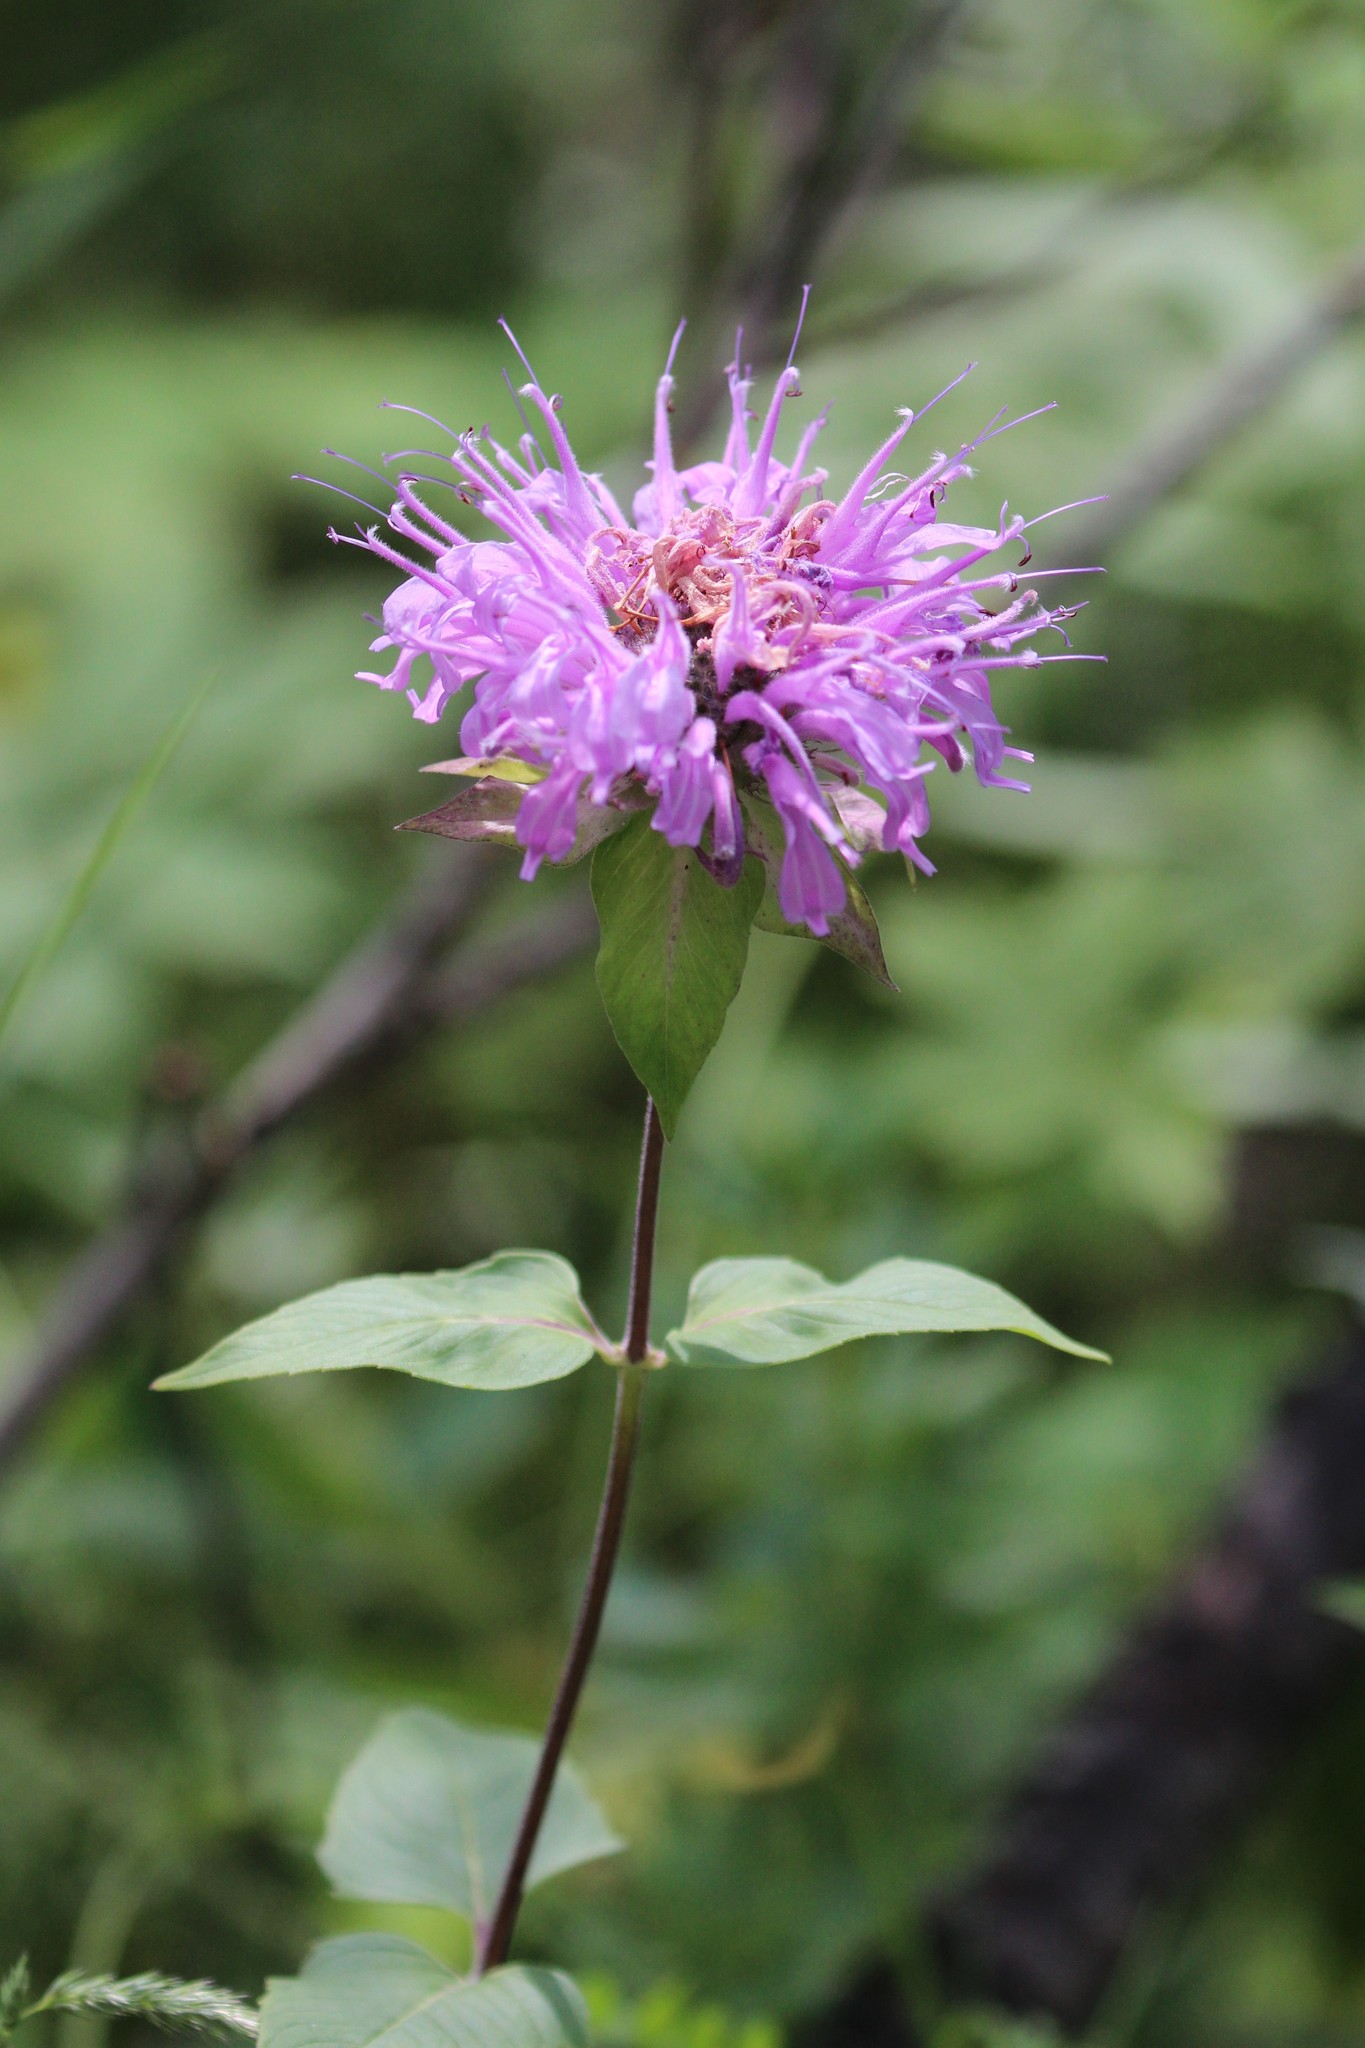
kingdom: Plantae
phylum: Tracheophyta
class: Magnoliopsida
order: Lamiales
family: Lamiaceae
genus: Monarda
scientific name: Monarda fistulosa
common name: Purple beebalm
